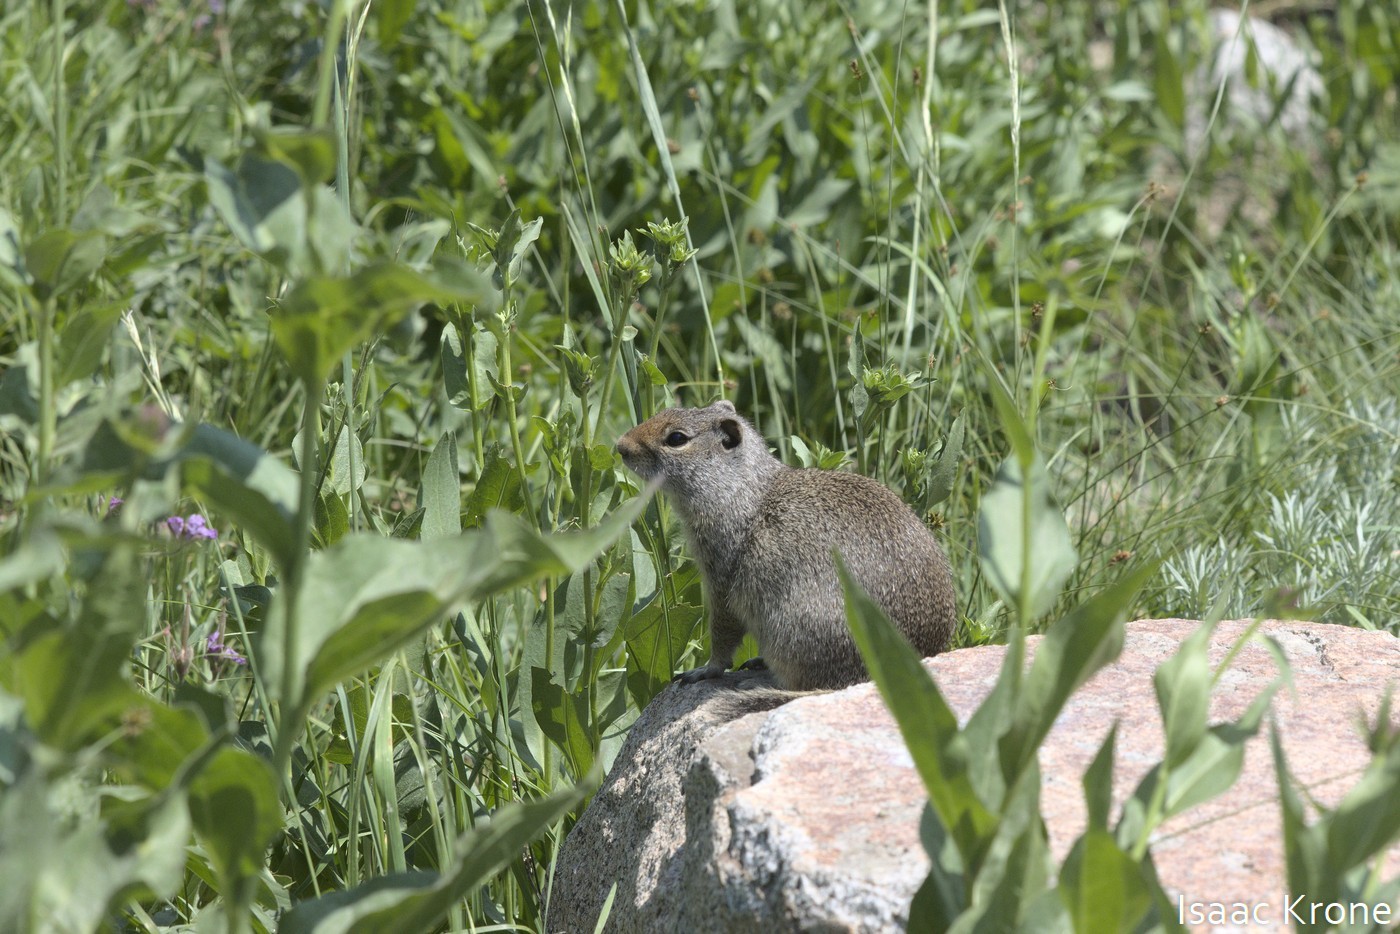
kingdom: Animalia
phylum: Chordata
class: Mammalia
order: Rodentia
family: Sciuridae
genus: Urocitellus
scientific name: Urocitellus armatus
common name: Uinta ground squirrel
